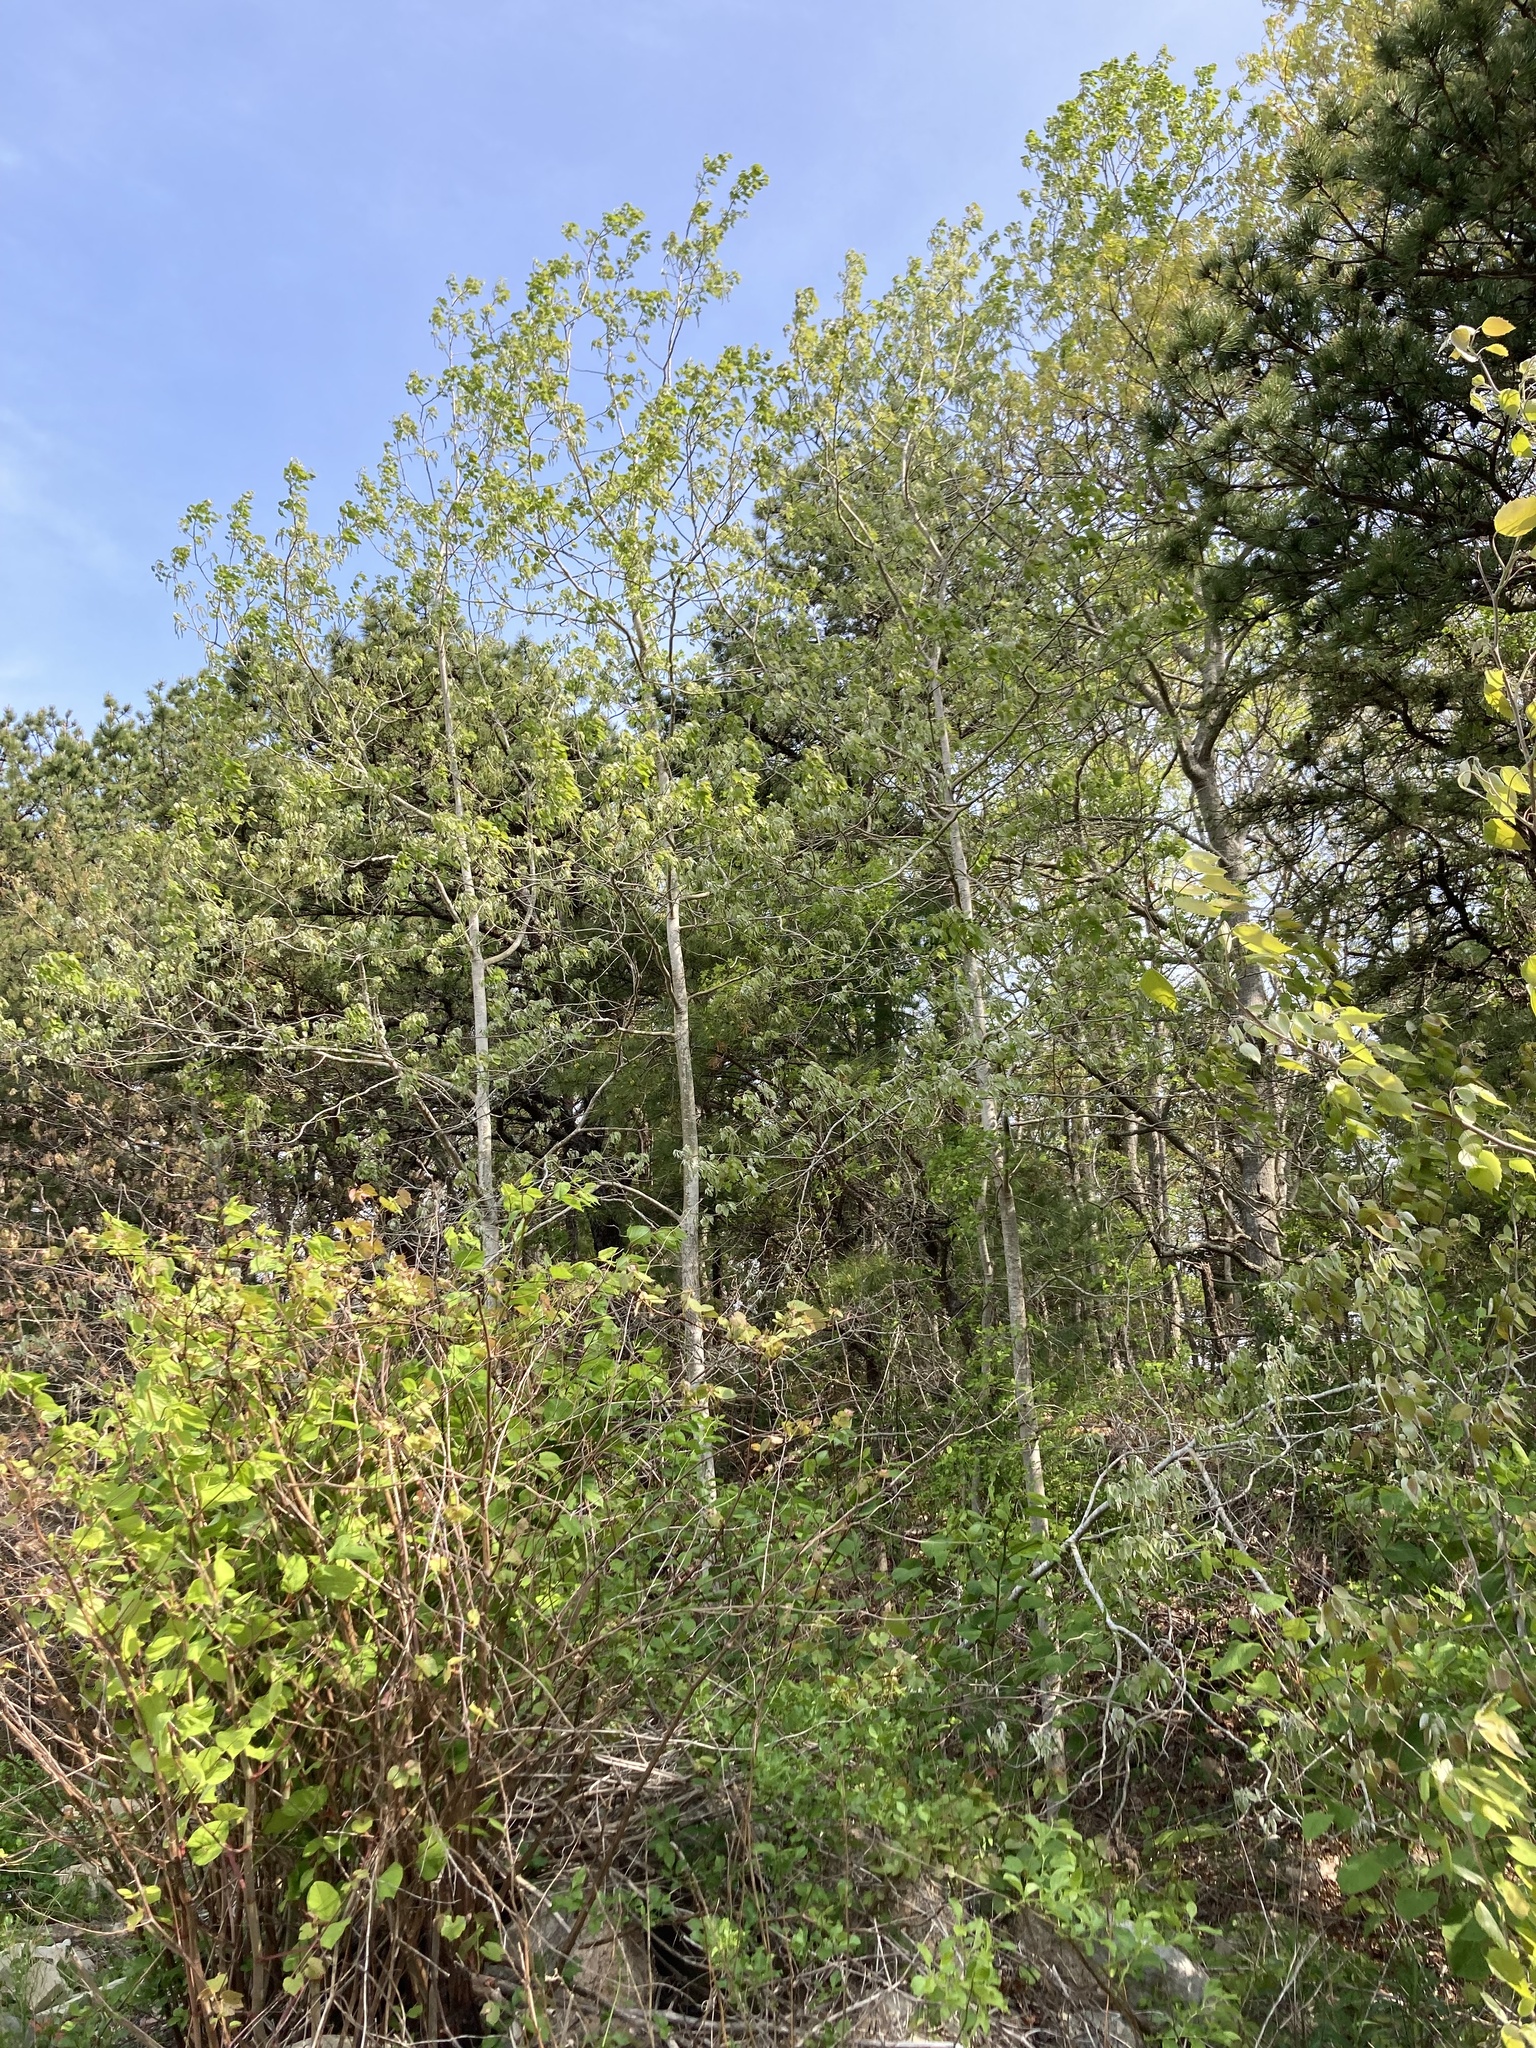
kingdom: Plantae
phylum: Tracheophyta
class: Magnoliopsida
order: Malpighiales
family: Salicaceae
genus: Populus
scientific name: Populus grandidentata
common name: Bigtooth aspen
